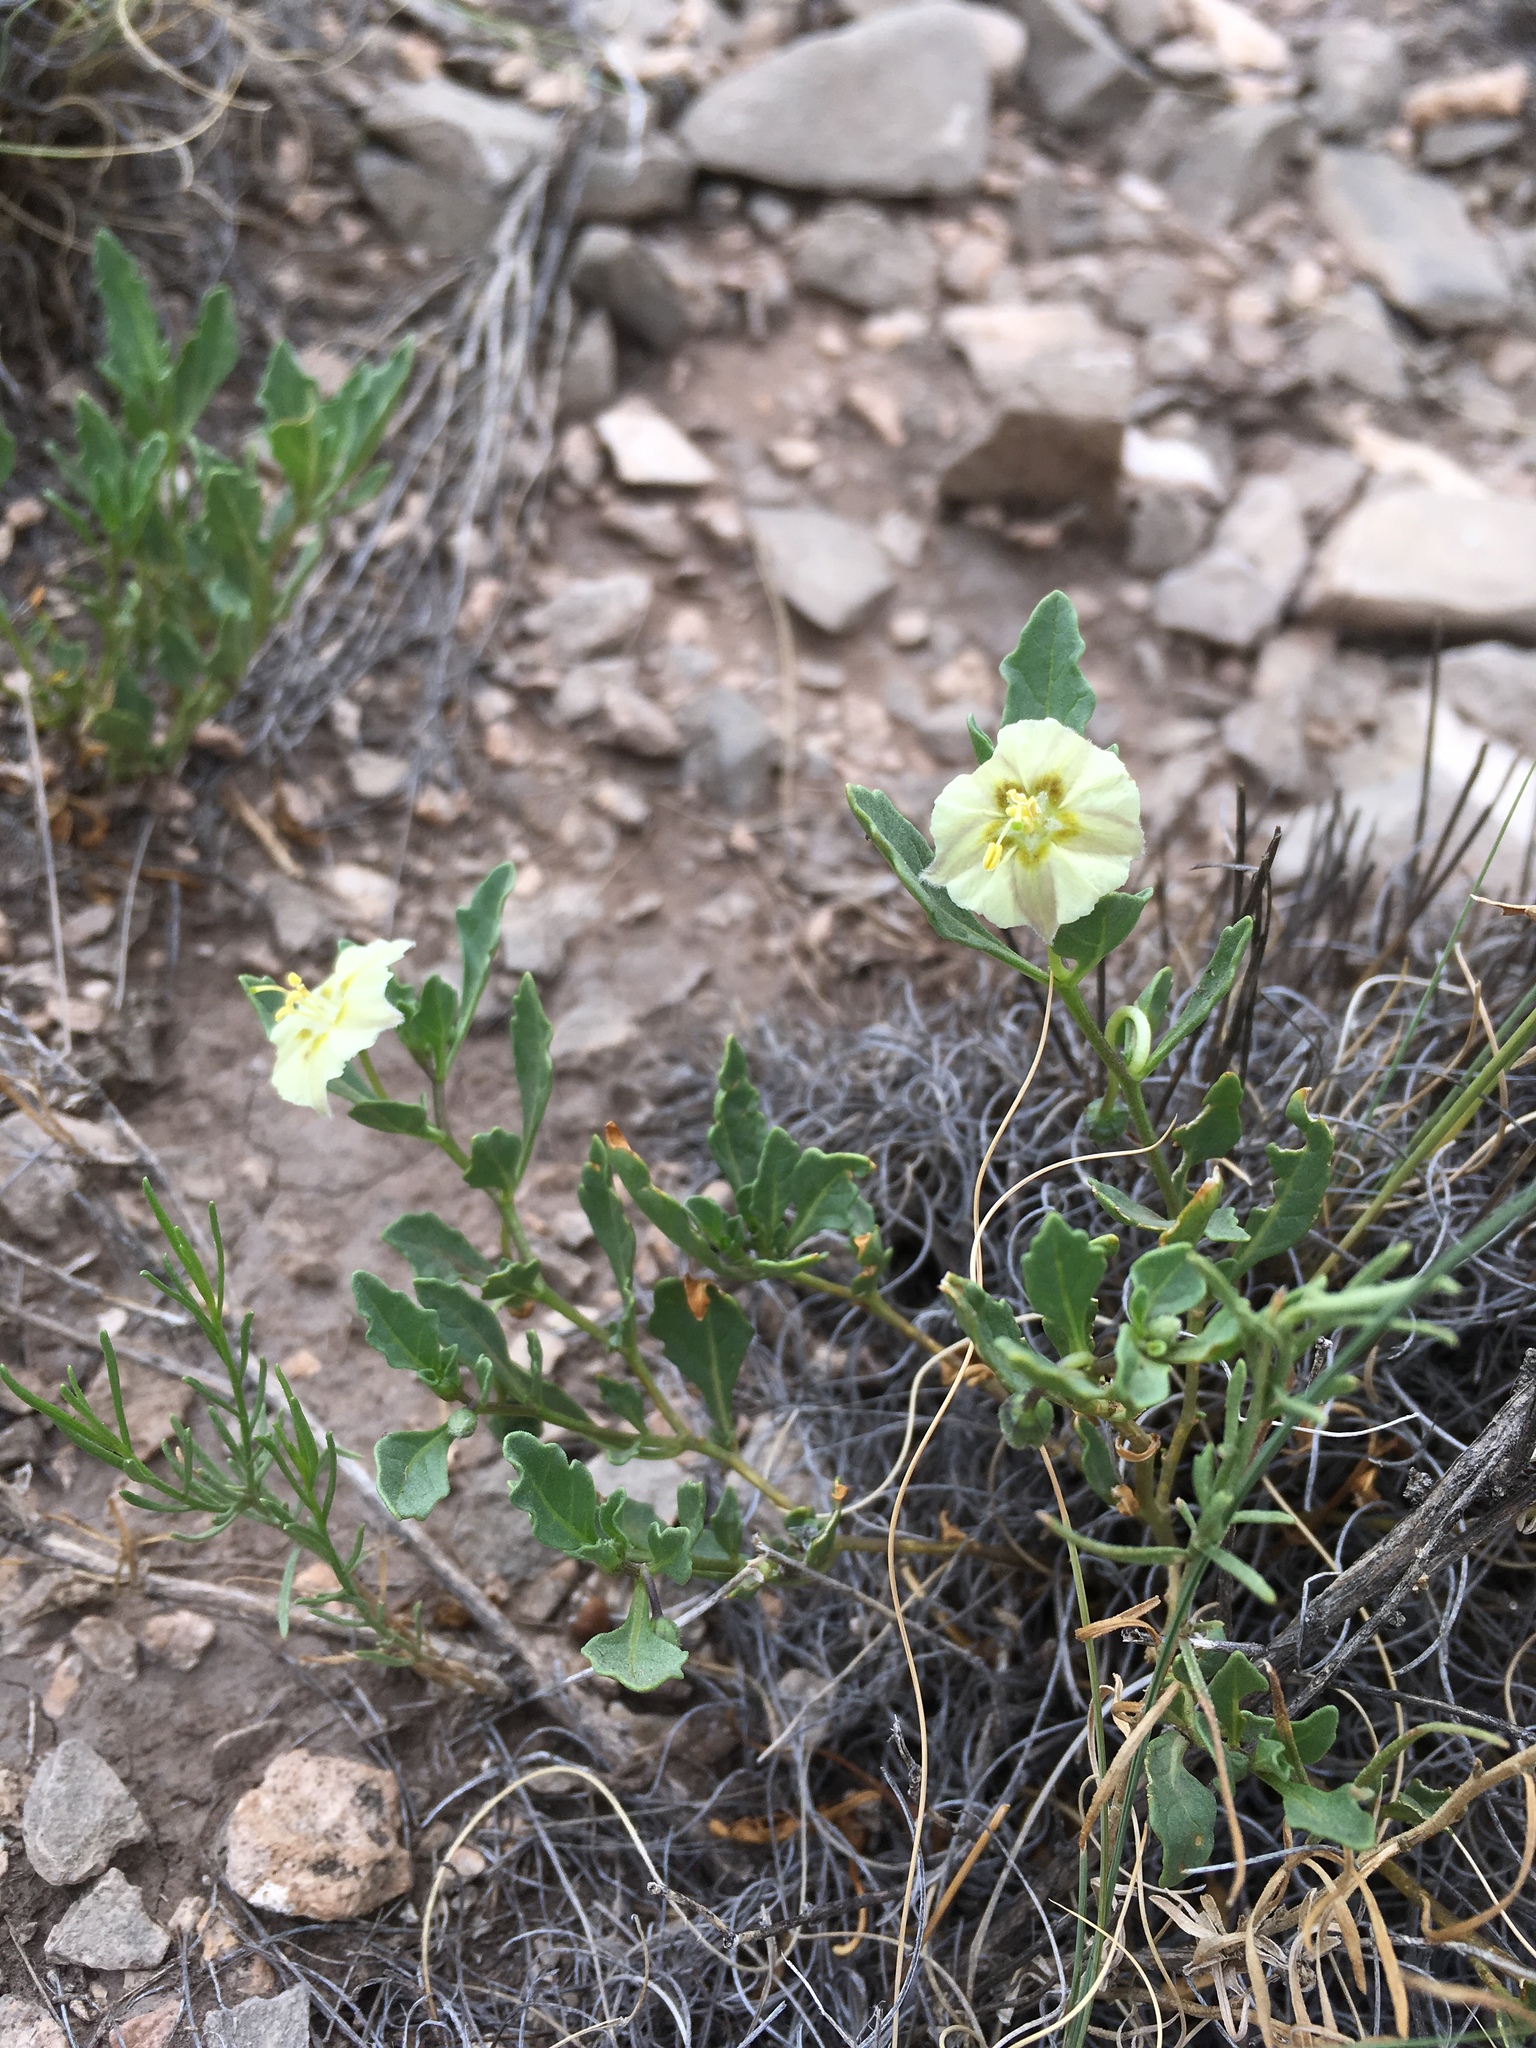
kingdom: Plantae
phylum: Tracheophyta
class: Magnoliopsida
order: Solanales
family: Solanaceae
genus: Chamaesaracha
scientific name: Chamaesaracha pallida
